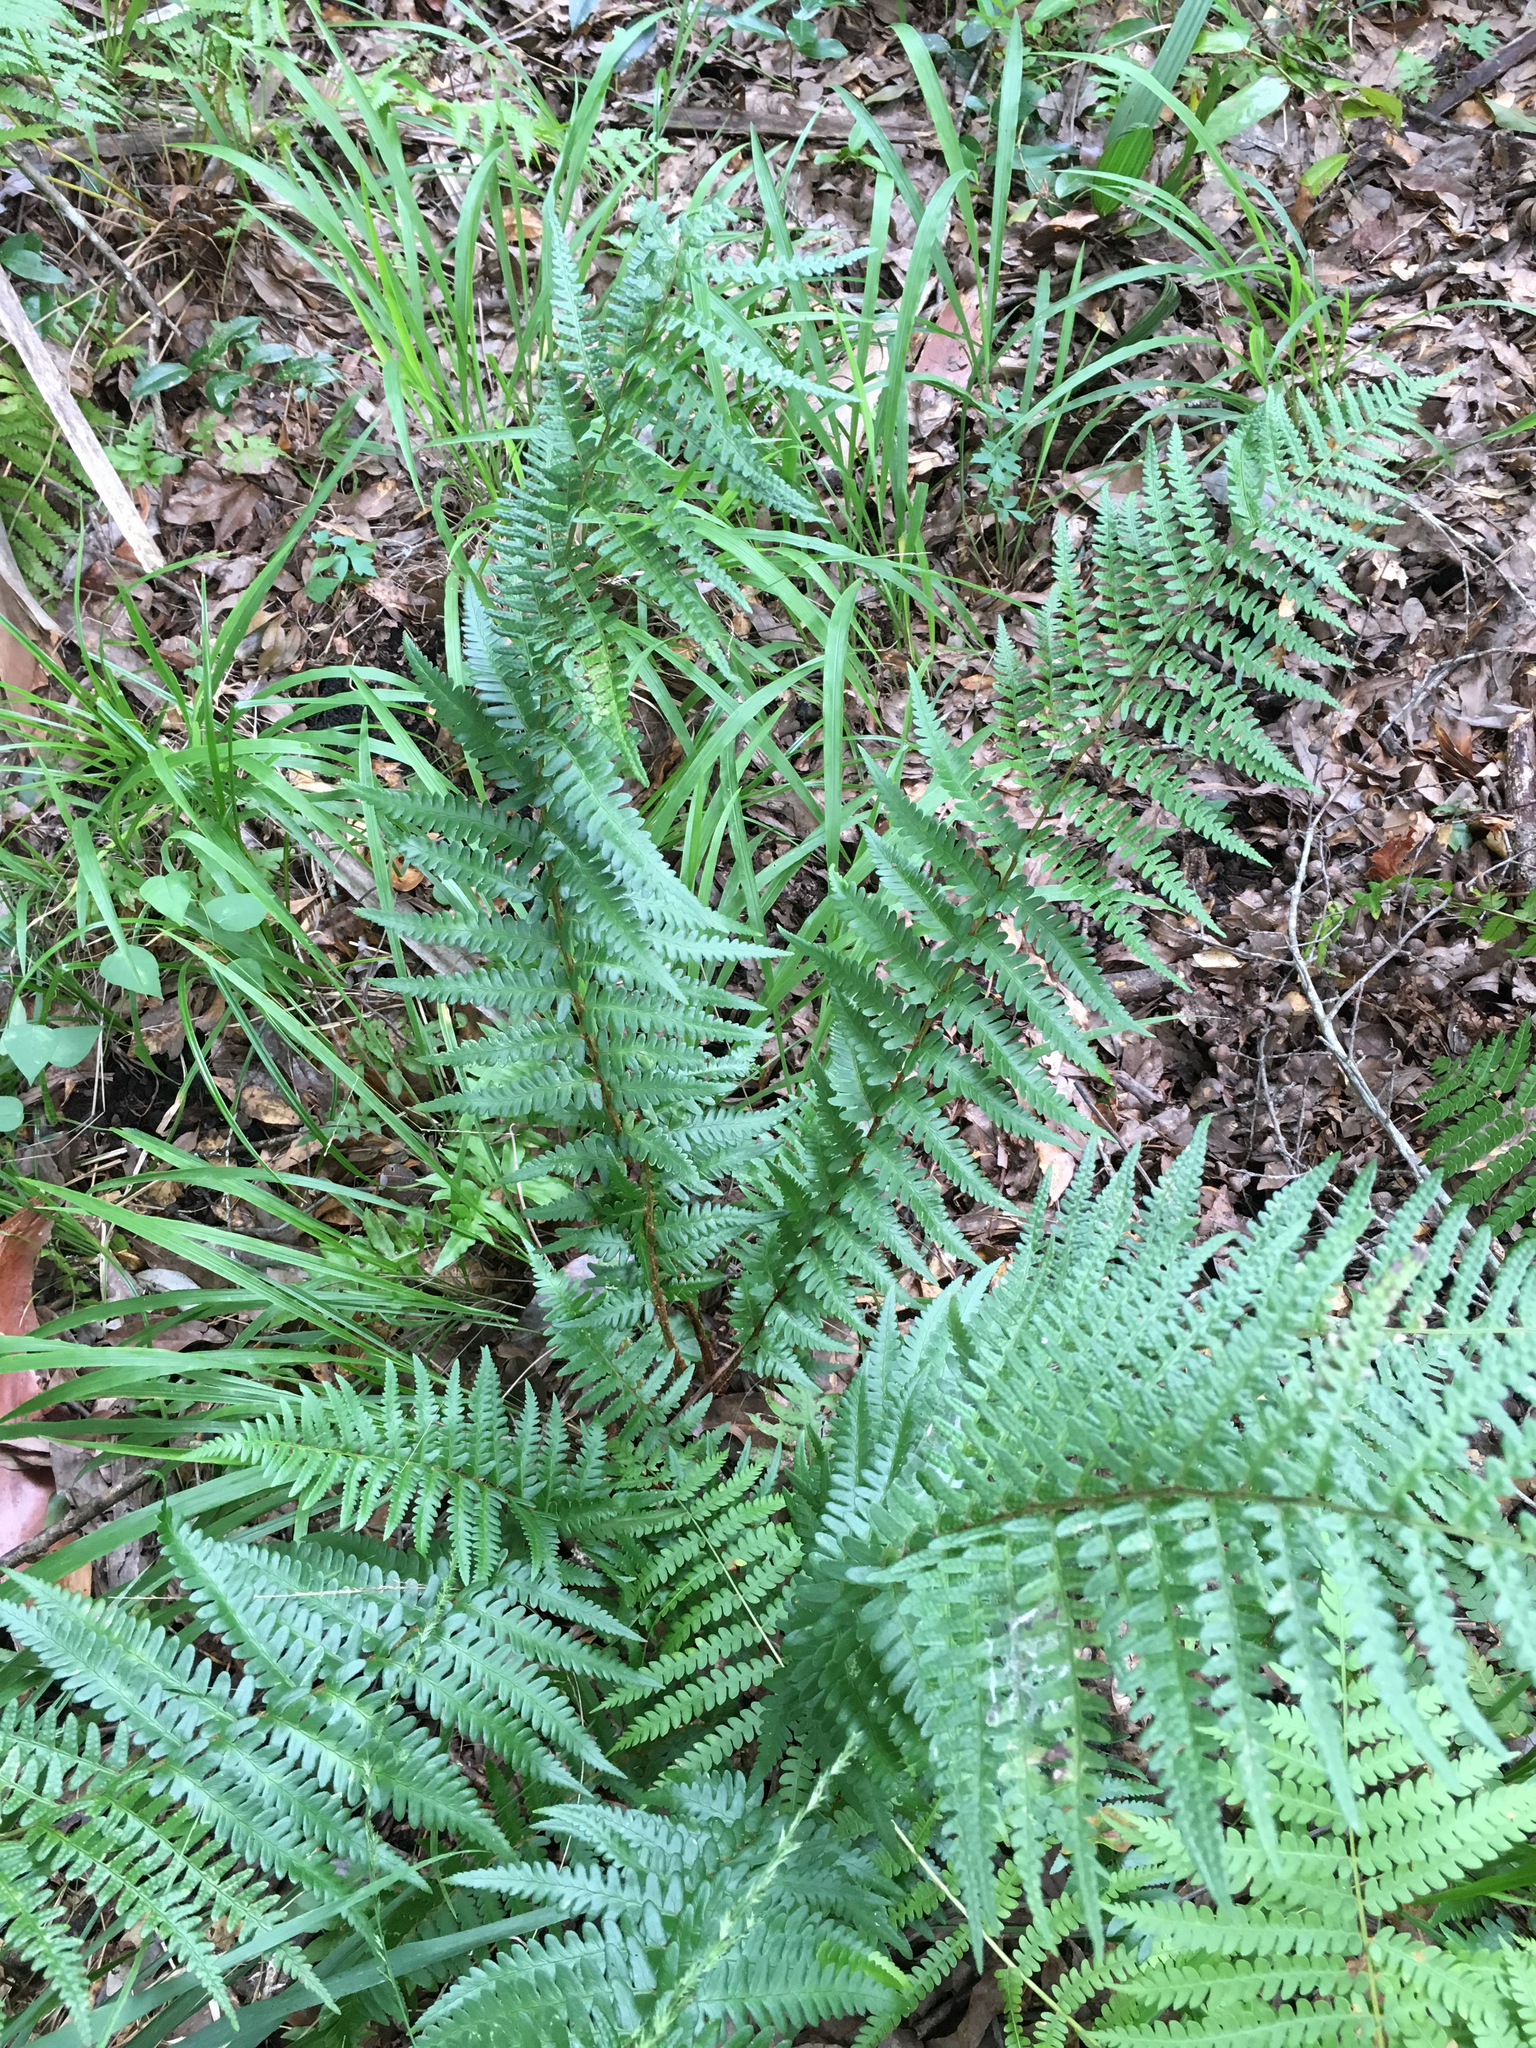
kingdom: Plantae
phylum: Tracheophyta
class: Polypodiopsida
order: Polypodiales
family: Dryopteridaceae
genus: Dryopteris
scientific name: Dryopteris ludoviciana
